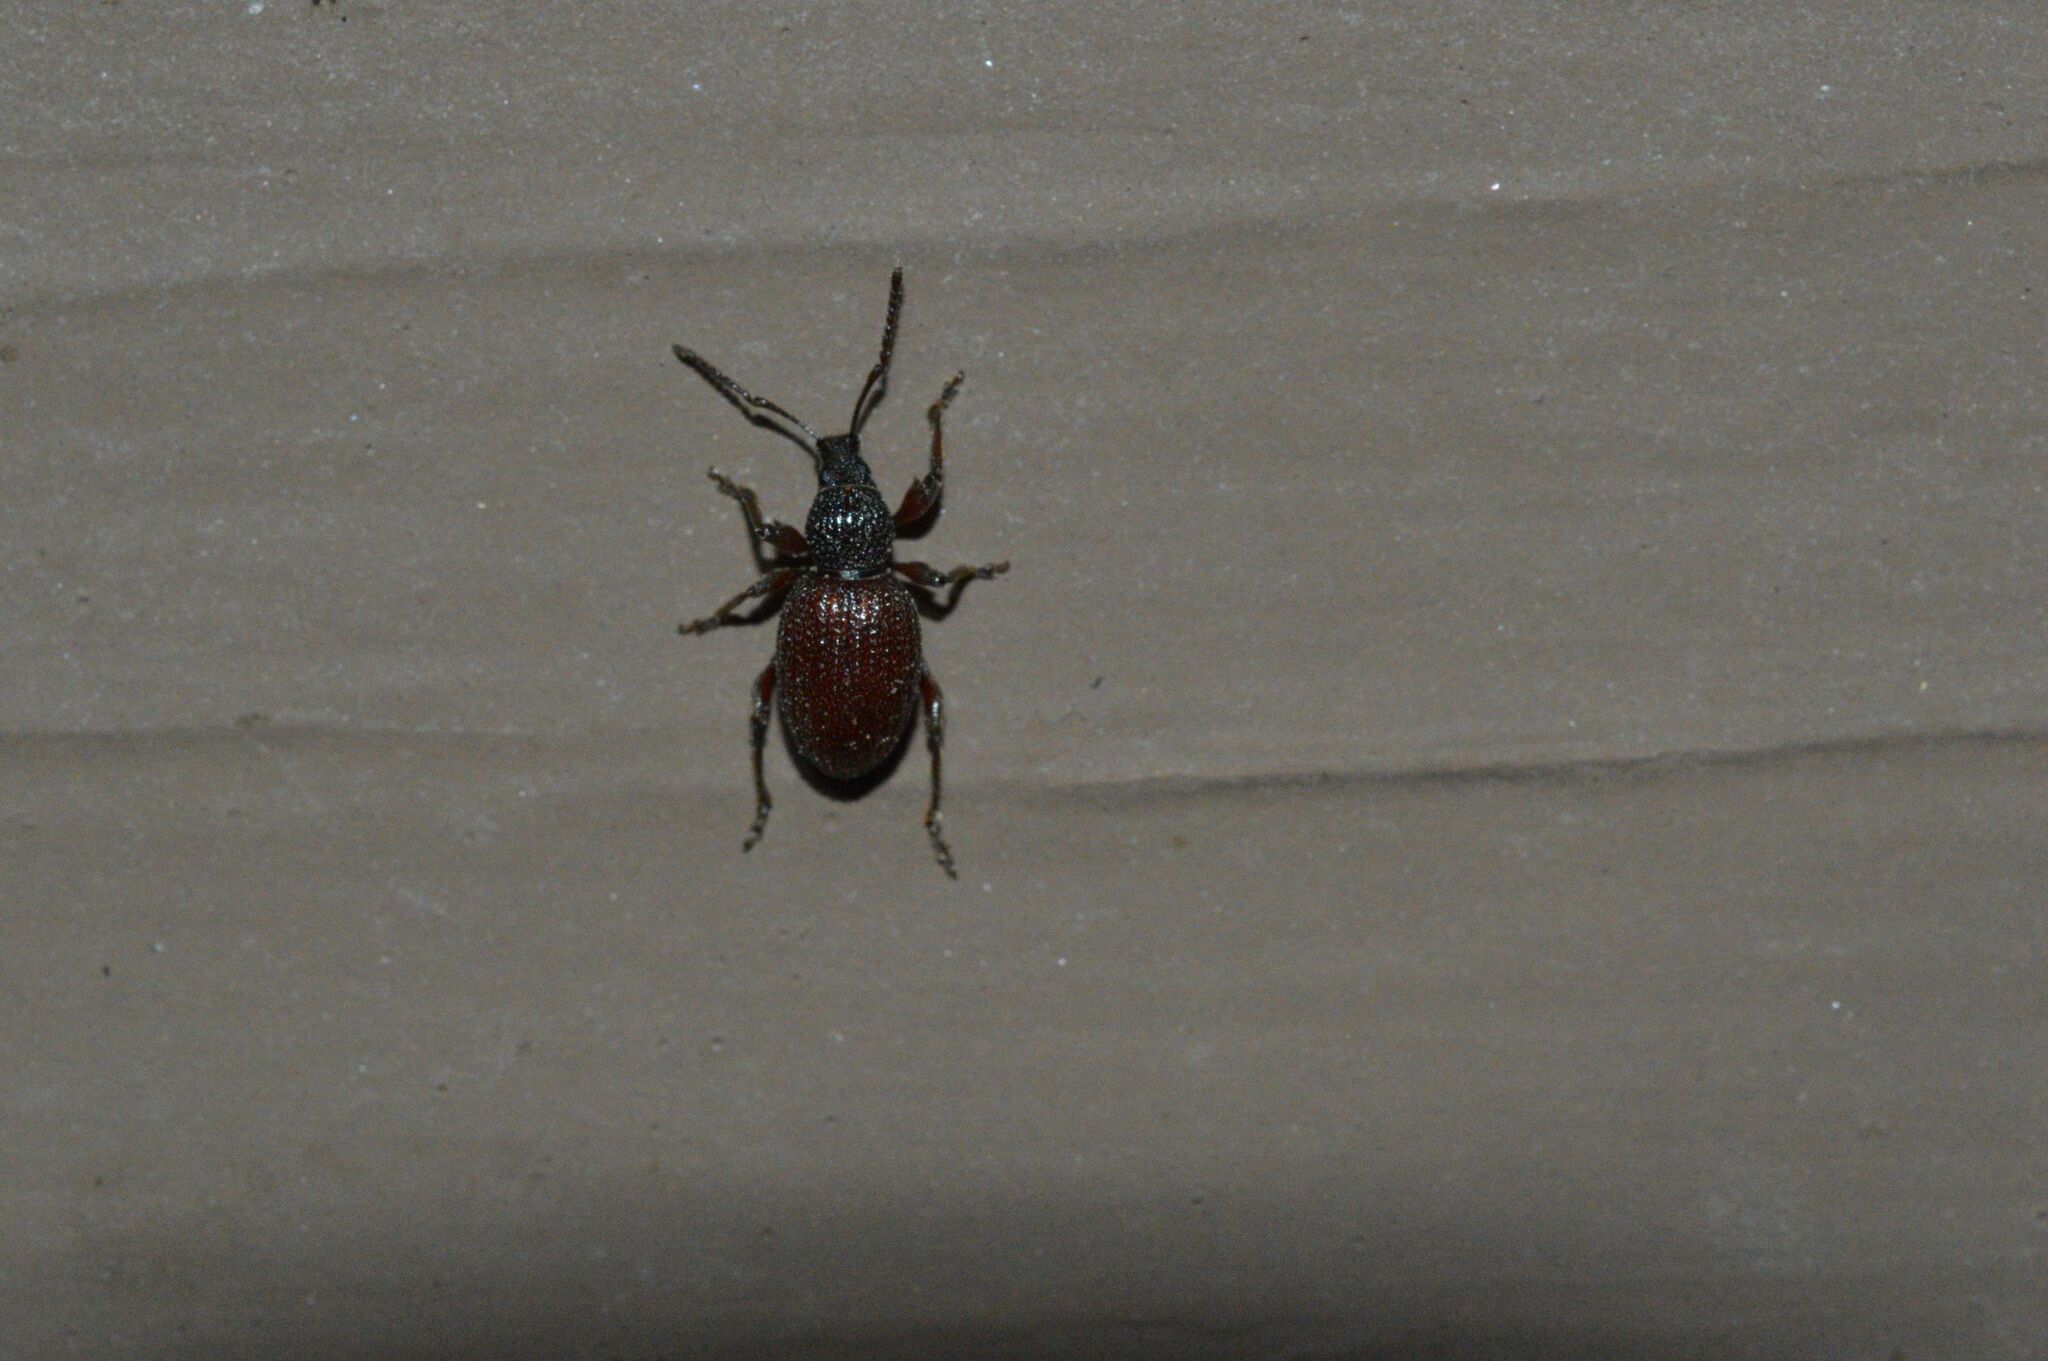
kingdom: Animalia
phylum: Arthropoda
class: Insecta
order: Coleoptera
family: Curculionidae
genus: Otiorhynchus
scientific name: Otiorhynchus ovatus
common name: Strawberry root weevil
